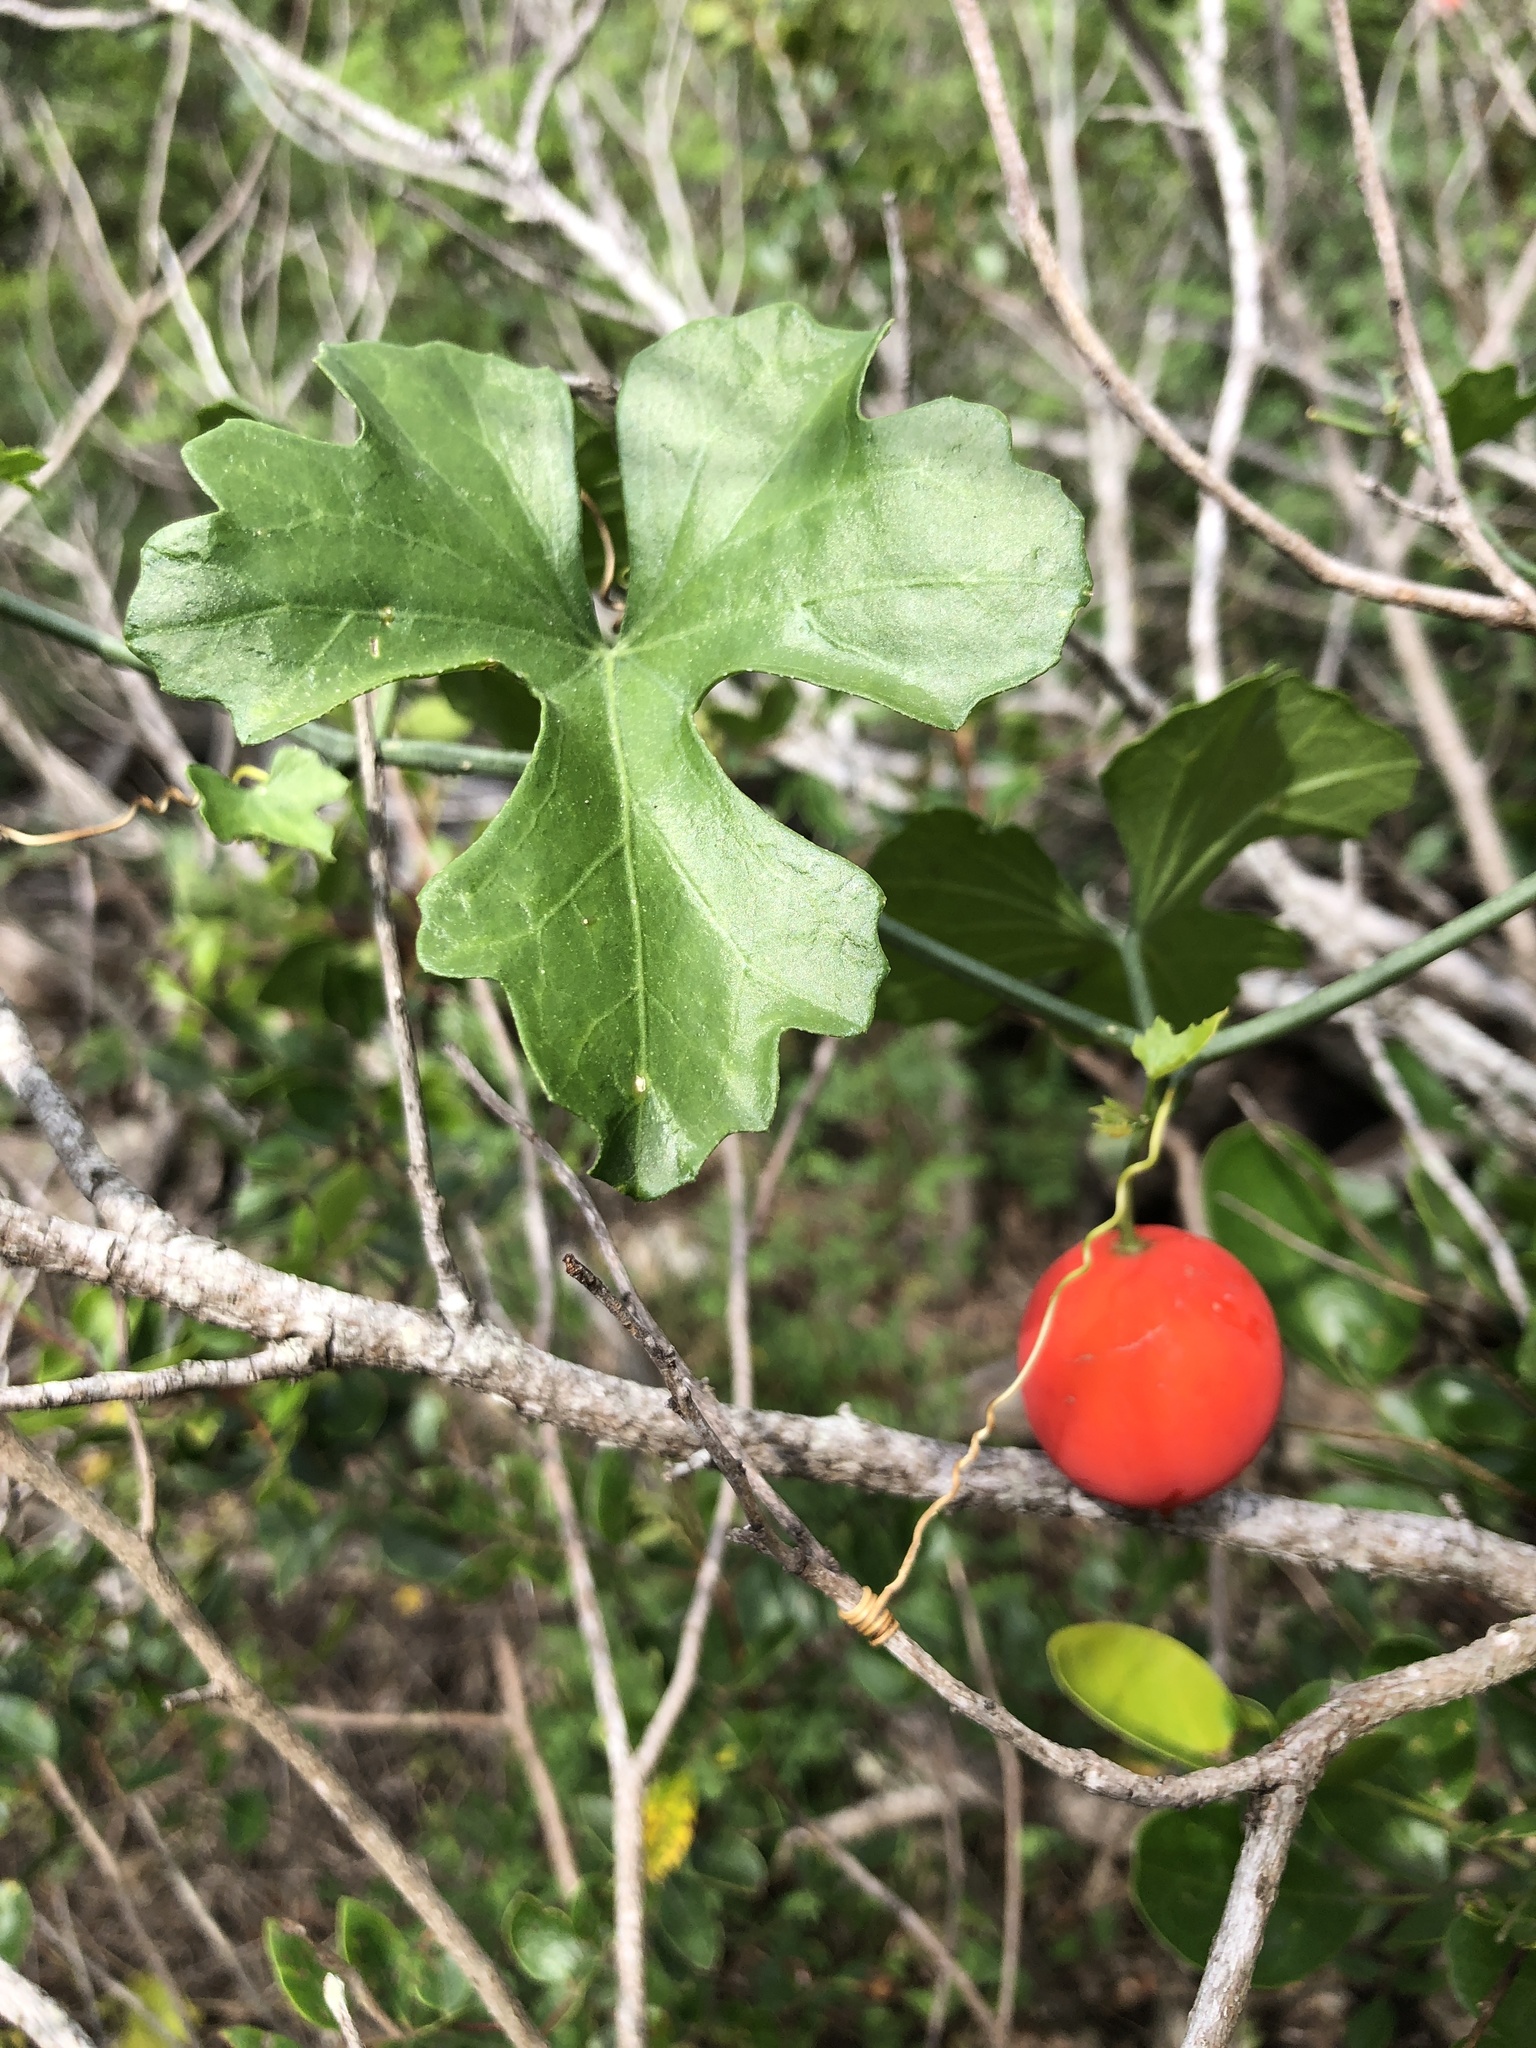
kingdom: Plantae
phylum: Tracheophyta
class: Magnoliopsida
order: Cucurbitales
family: Cucurbitaceae
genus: Ibervillea
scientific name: Ibervillea lindheimeri
